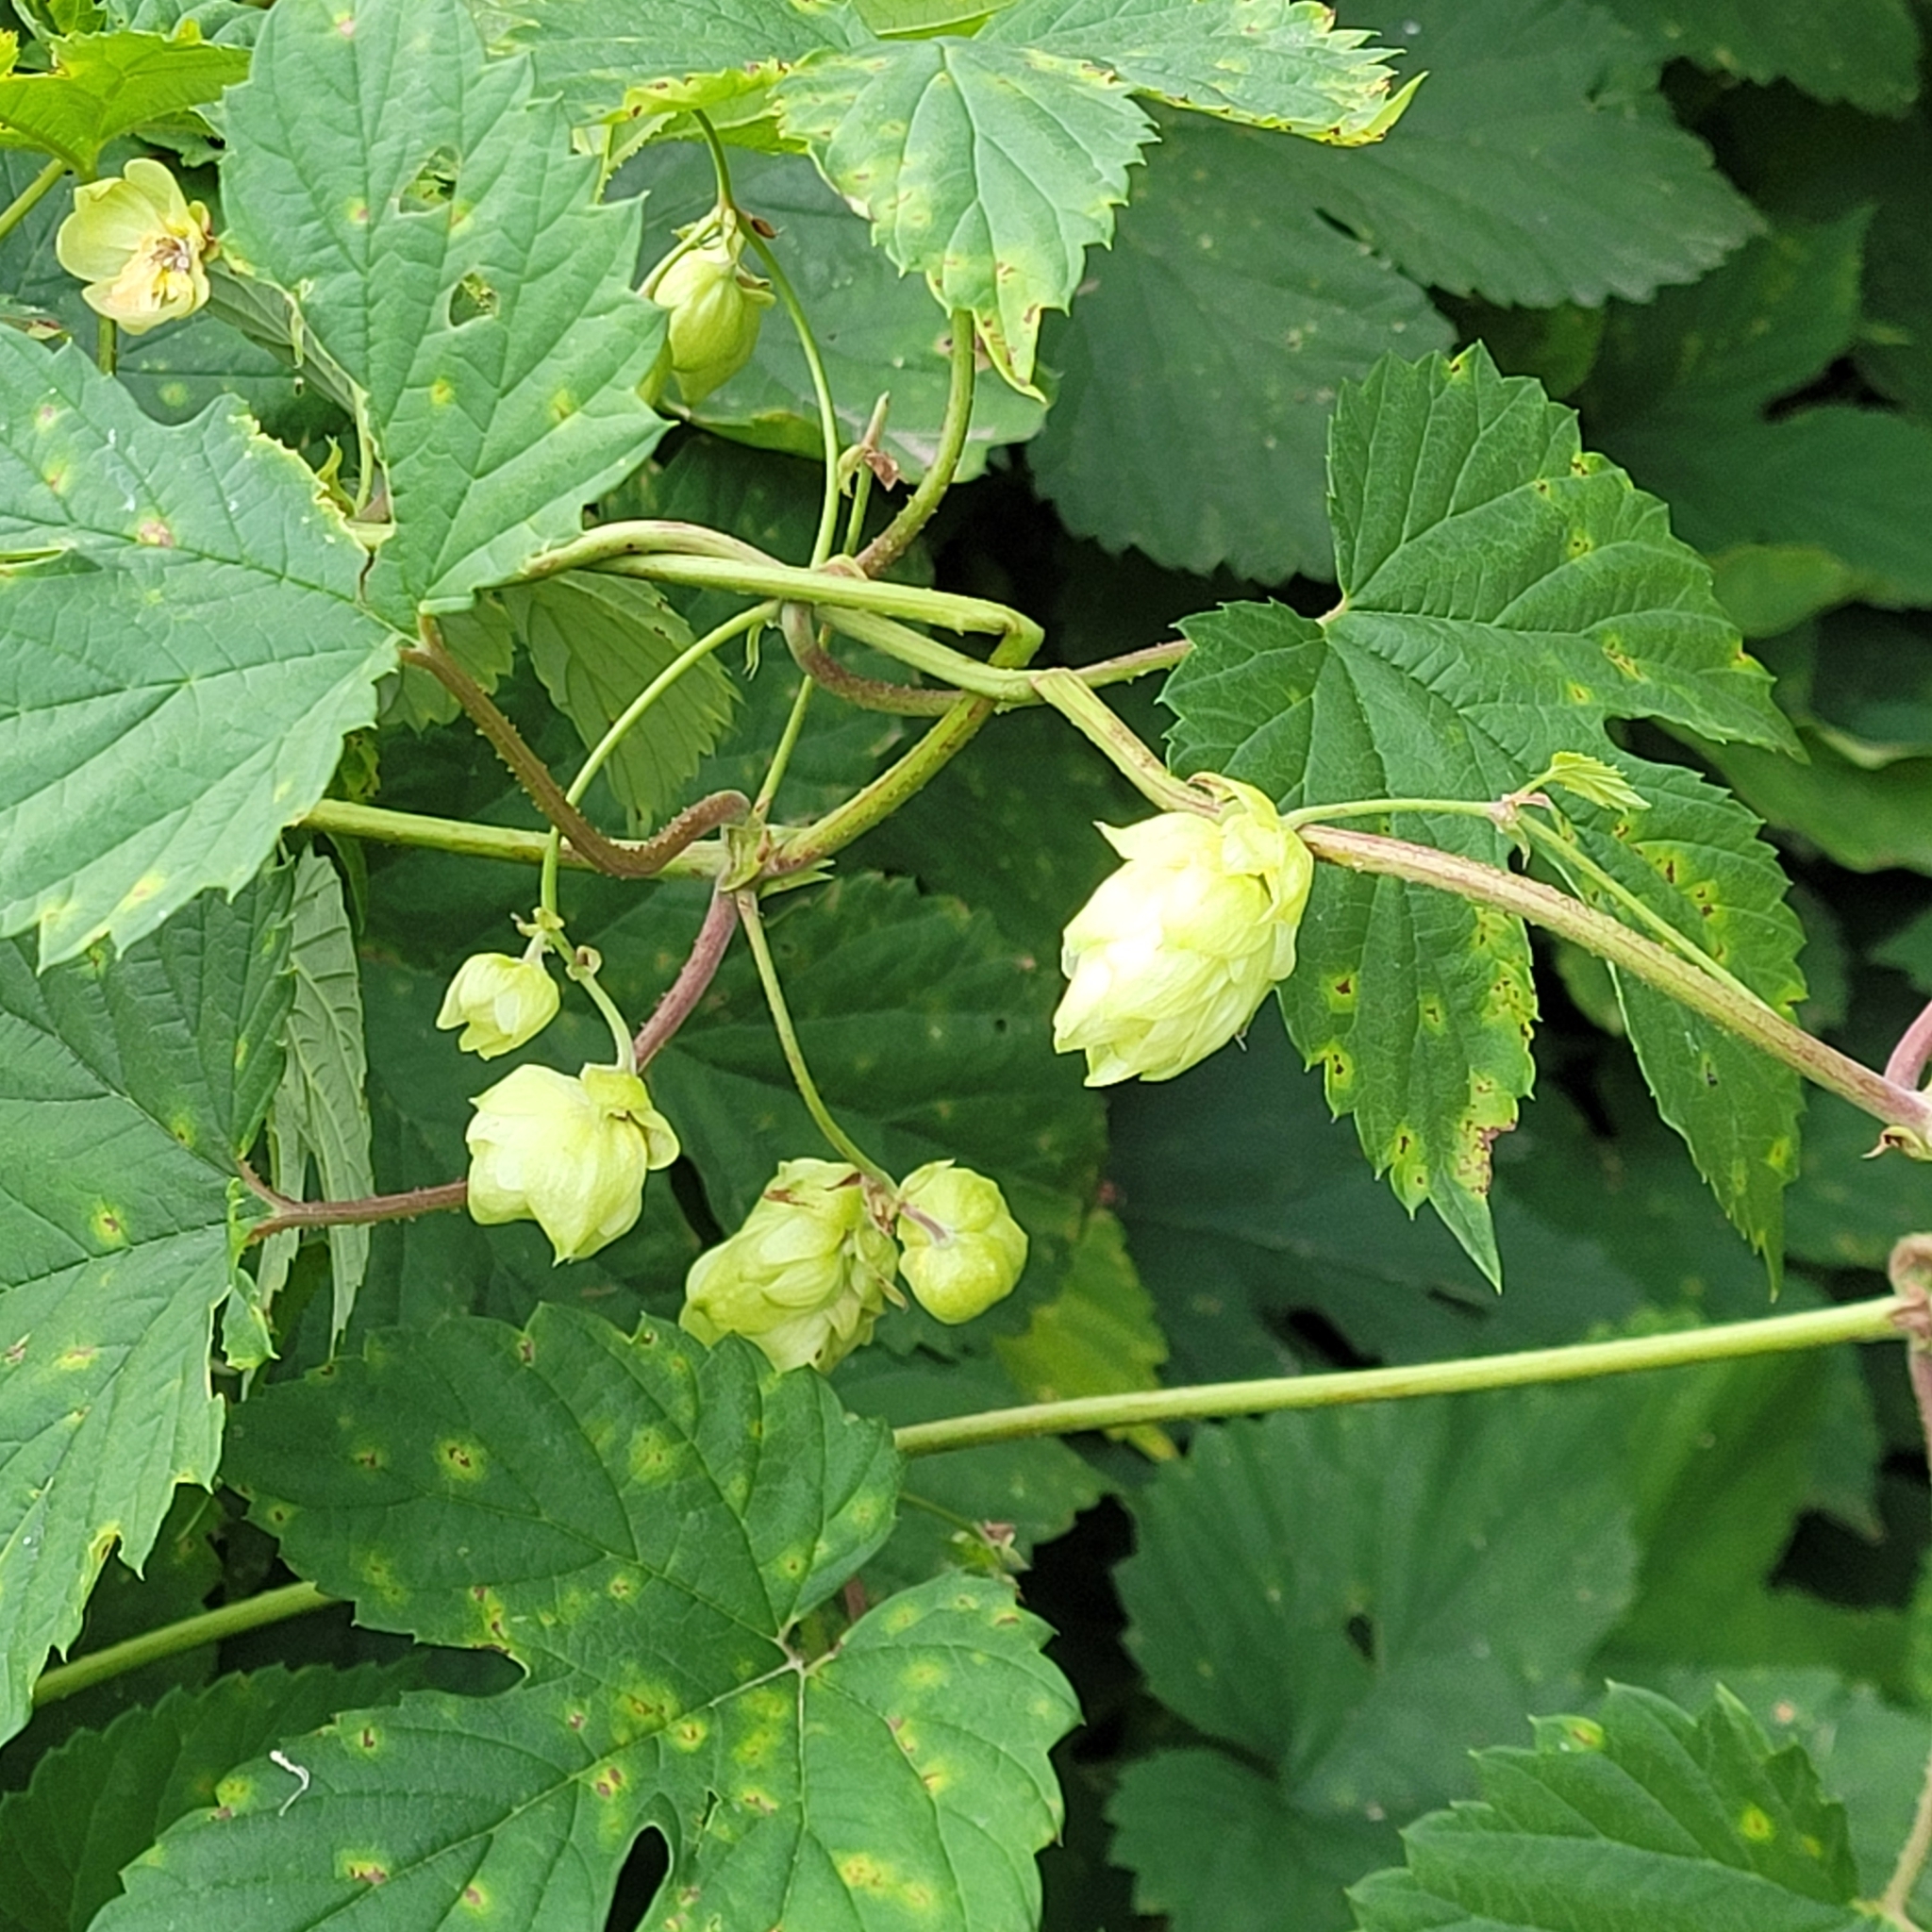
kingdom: Plantae
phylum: Tracheophyta
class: Magnoliopsida
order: Rosales
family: Cannabaceae
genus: Humulus
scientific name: Humulus lupulus
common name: Hop
